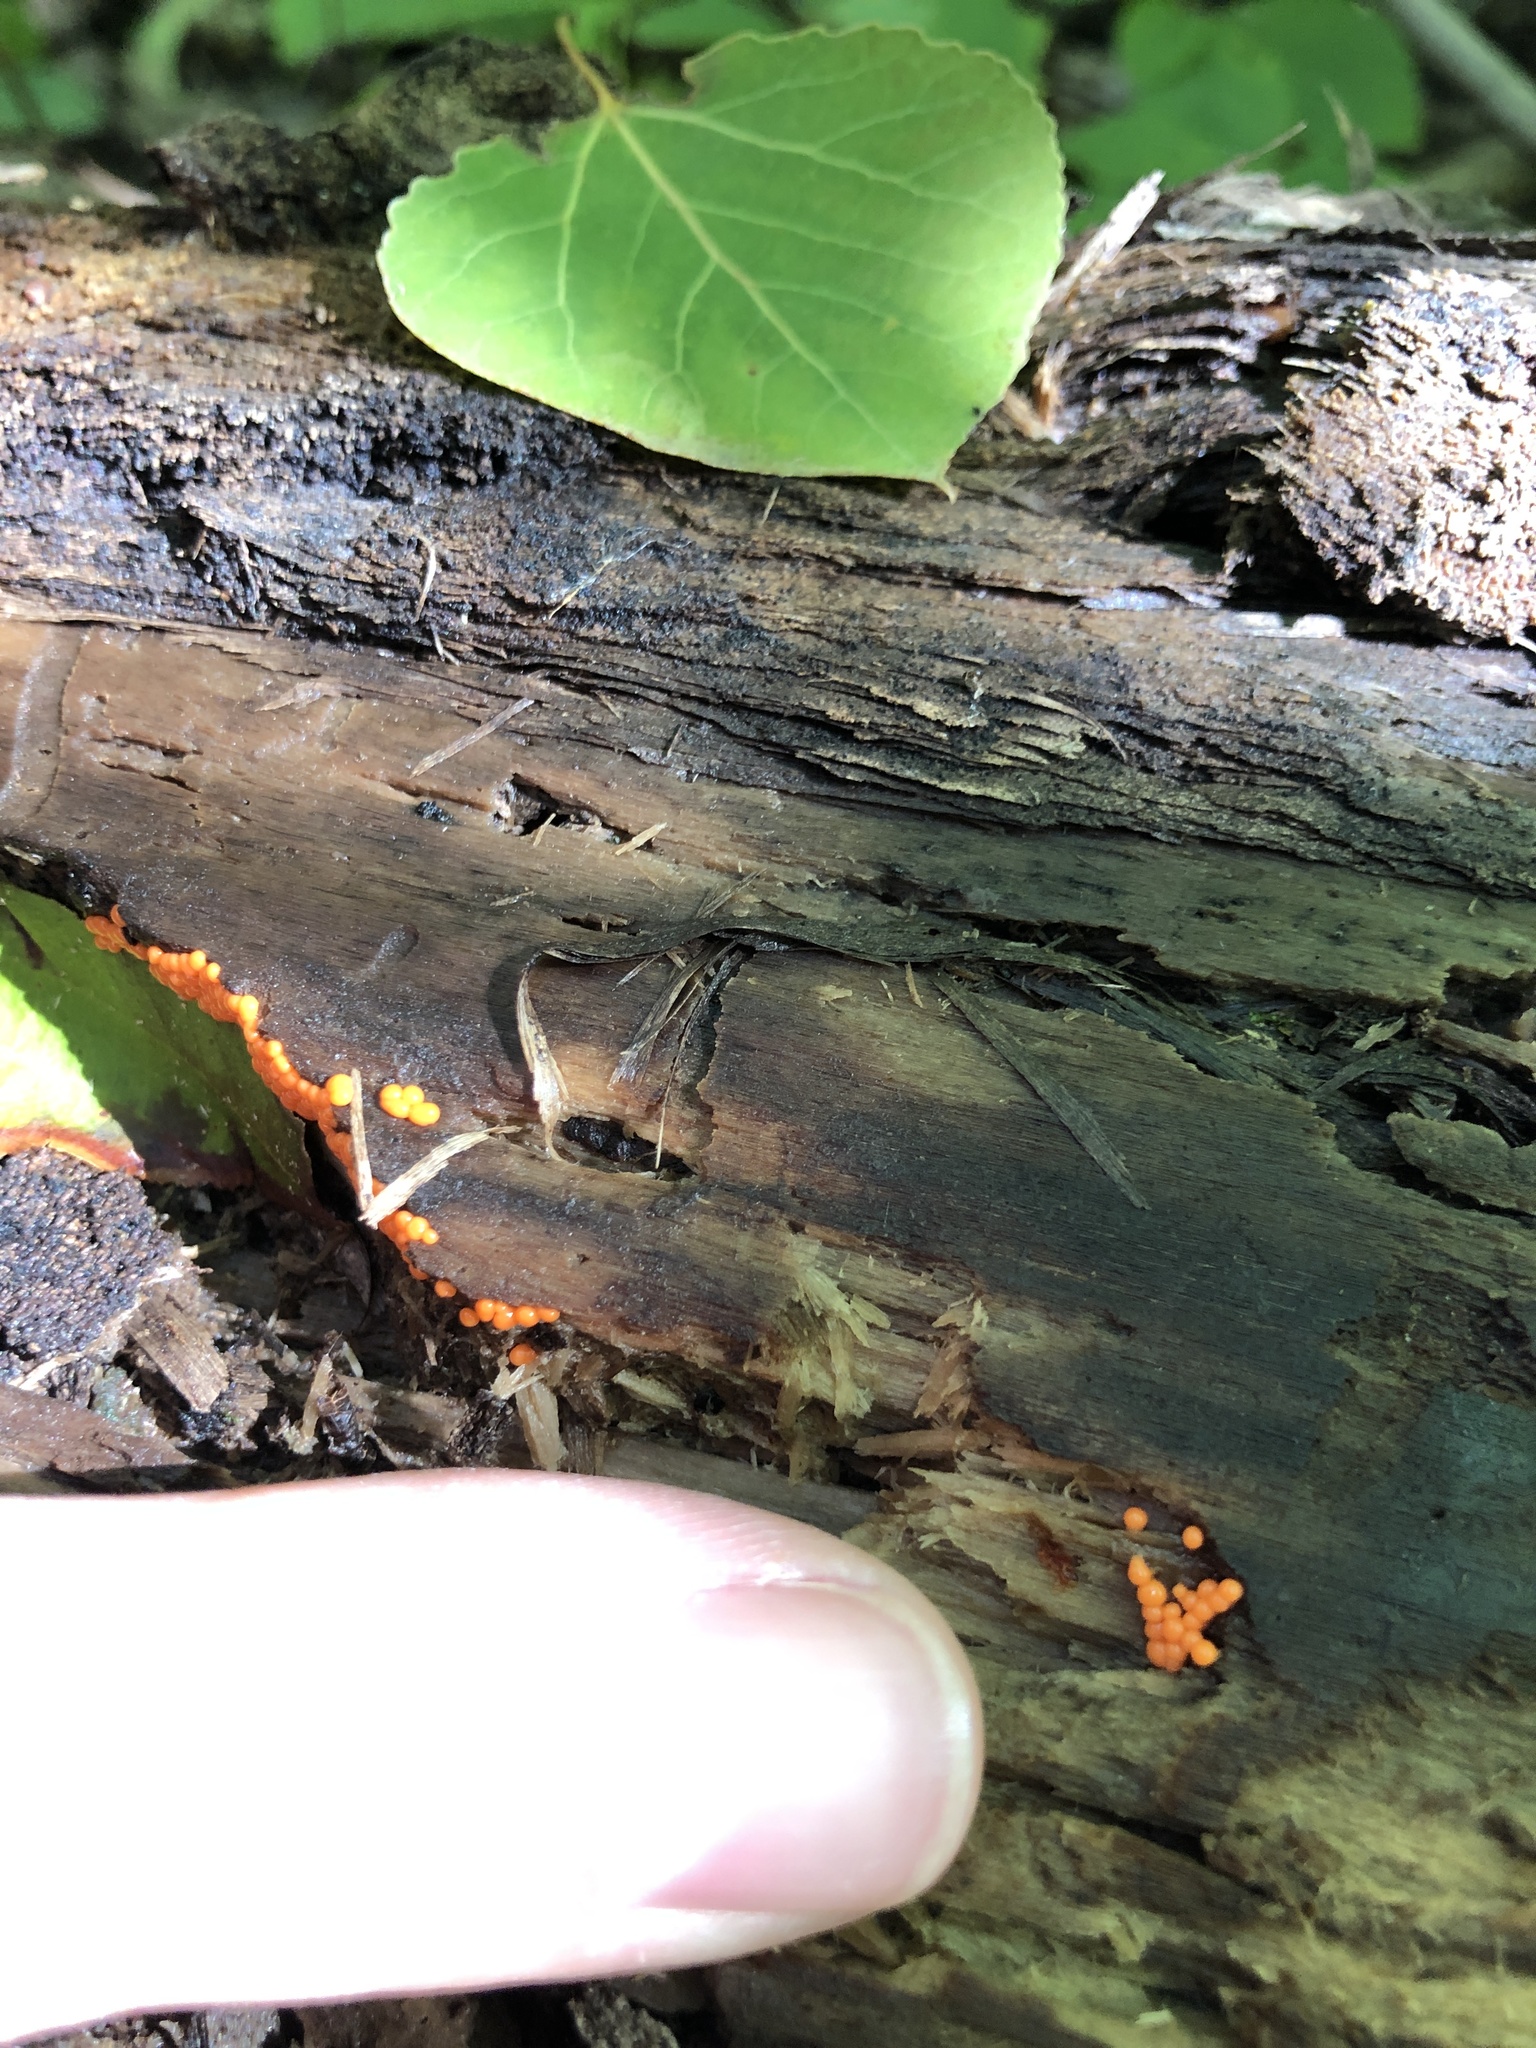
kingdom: Protozoa
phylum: Mycetozoa
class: Myxomycetes
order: Trichiales
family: Arcyriaceae
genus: Hemitrichia
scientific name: Hemitrichia decipiens
